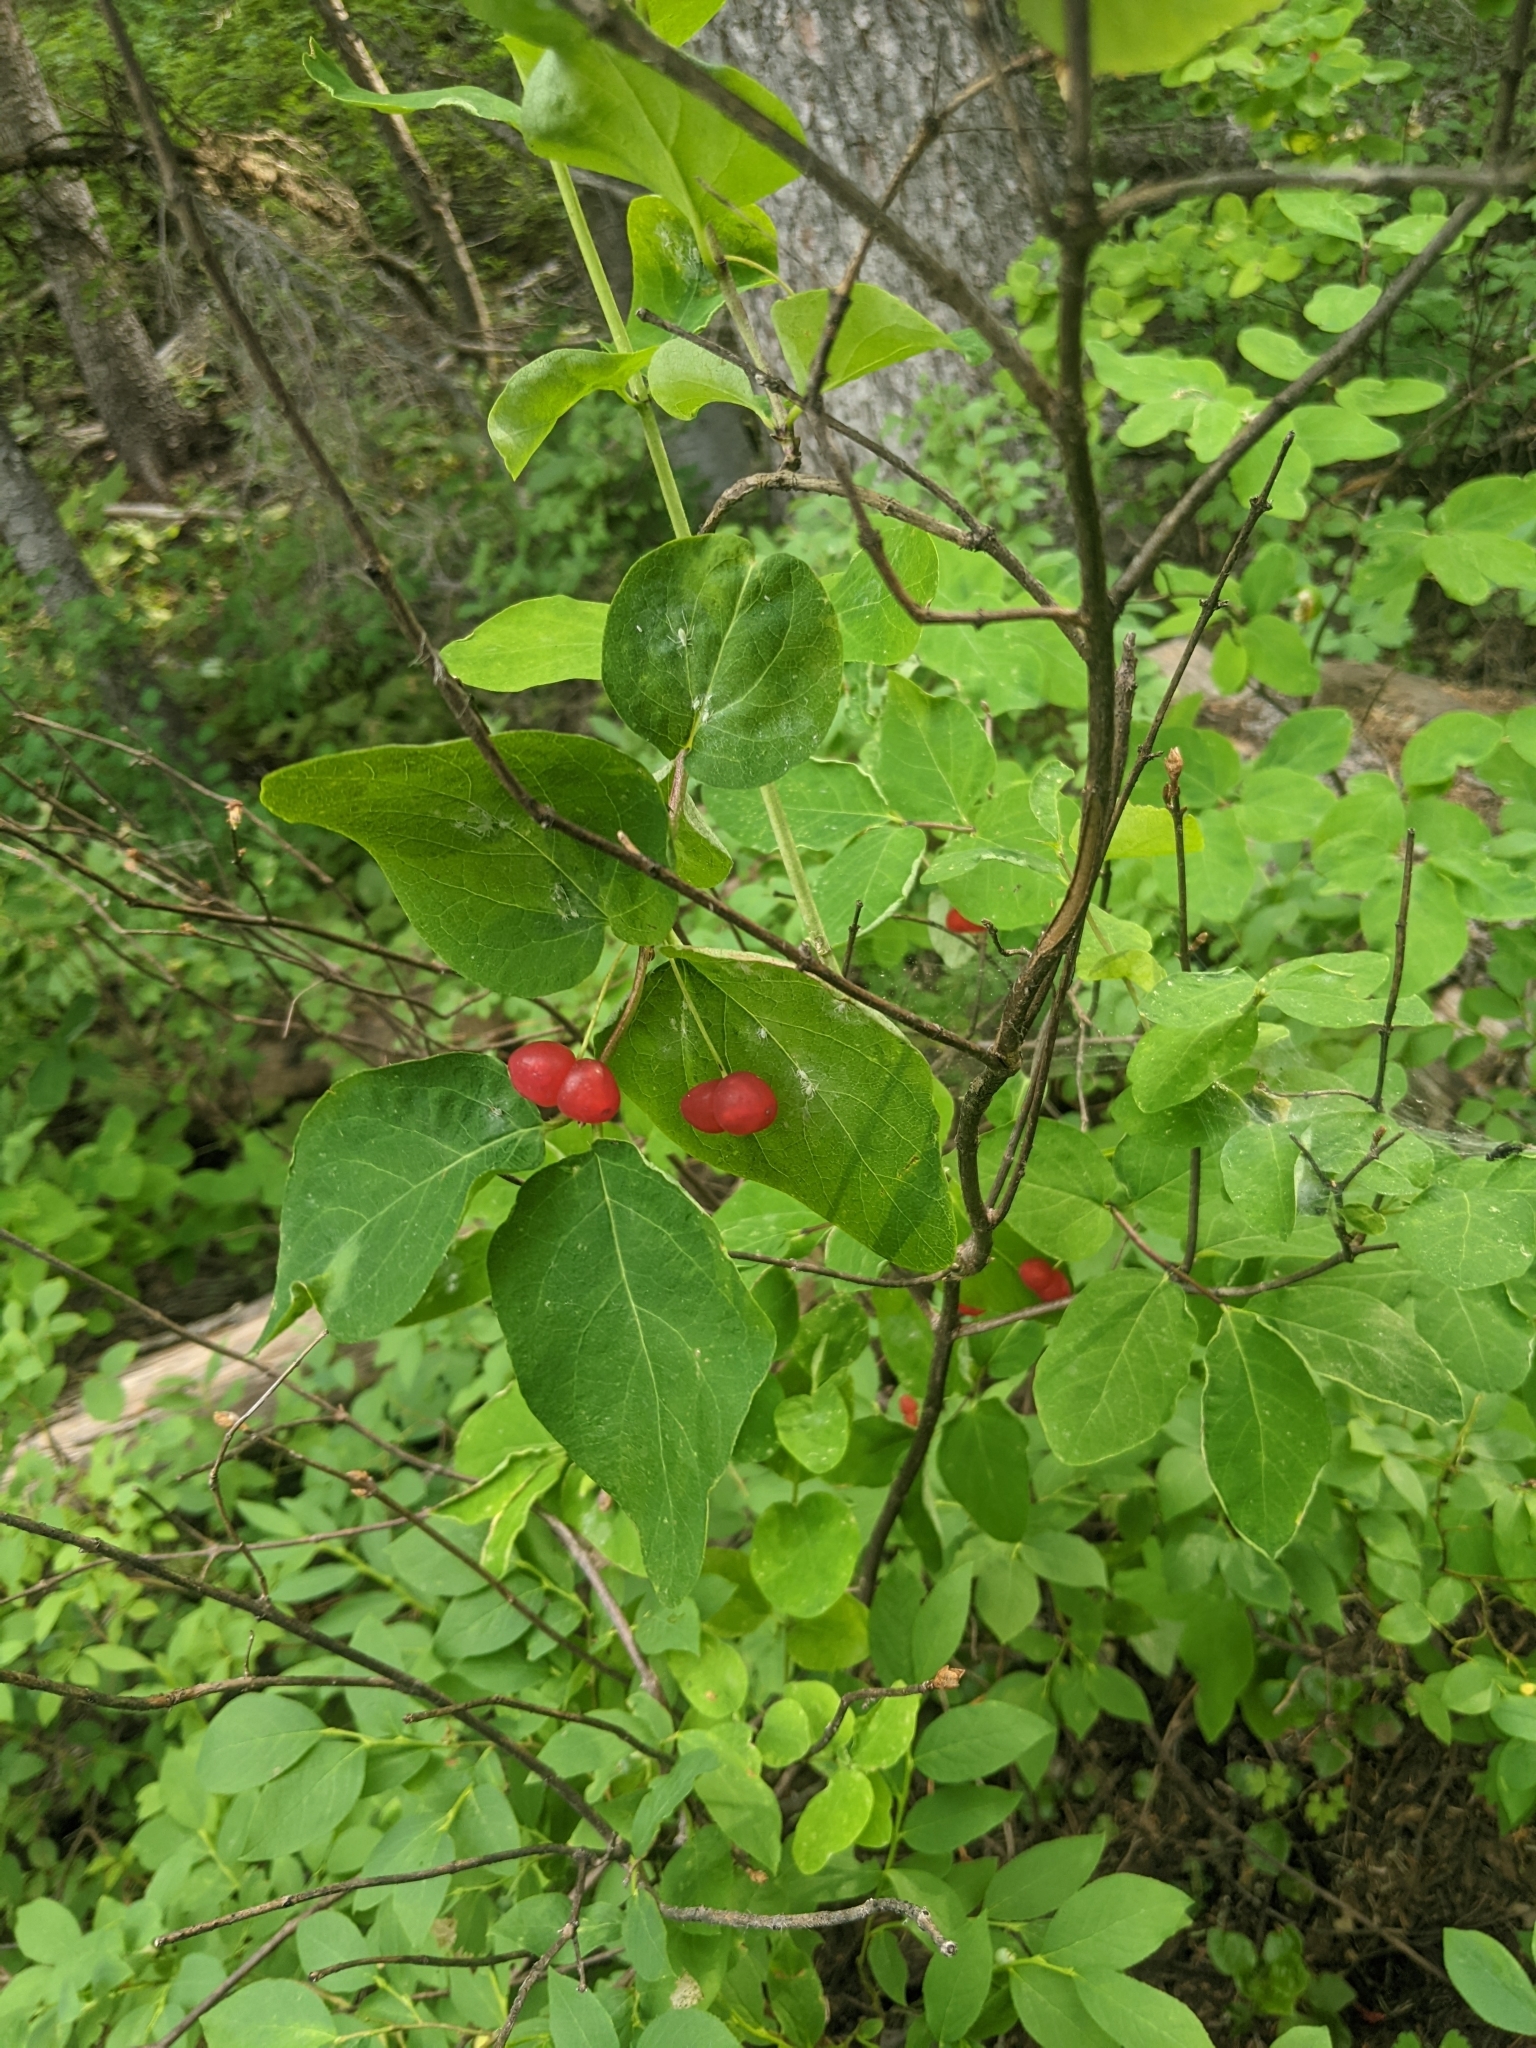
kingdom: Plantae
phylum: Tracheophyta
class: Magnoliopsida
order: Dipsacales
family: Caprifoliaceae
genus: Lonicera
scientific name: Lonicera utahensis
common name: Utah honeysuckle
